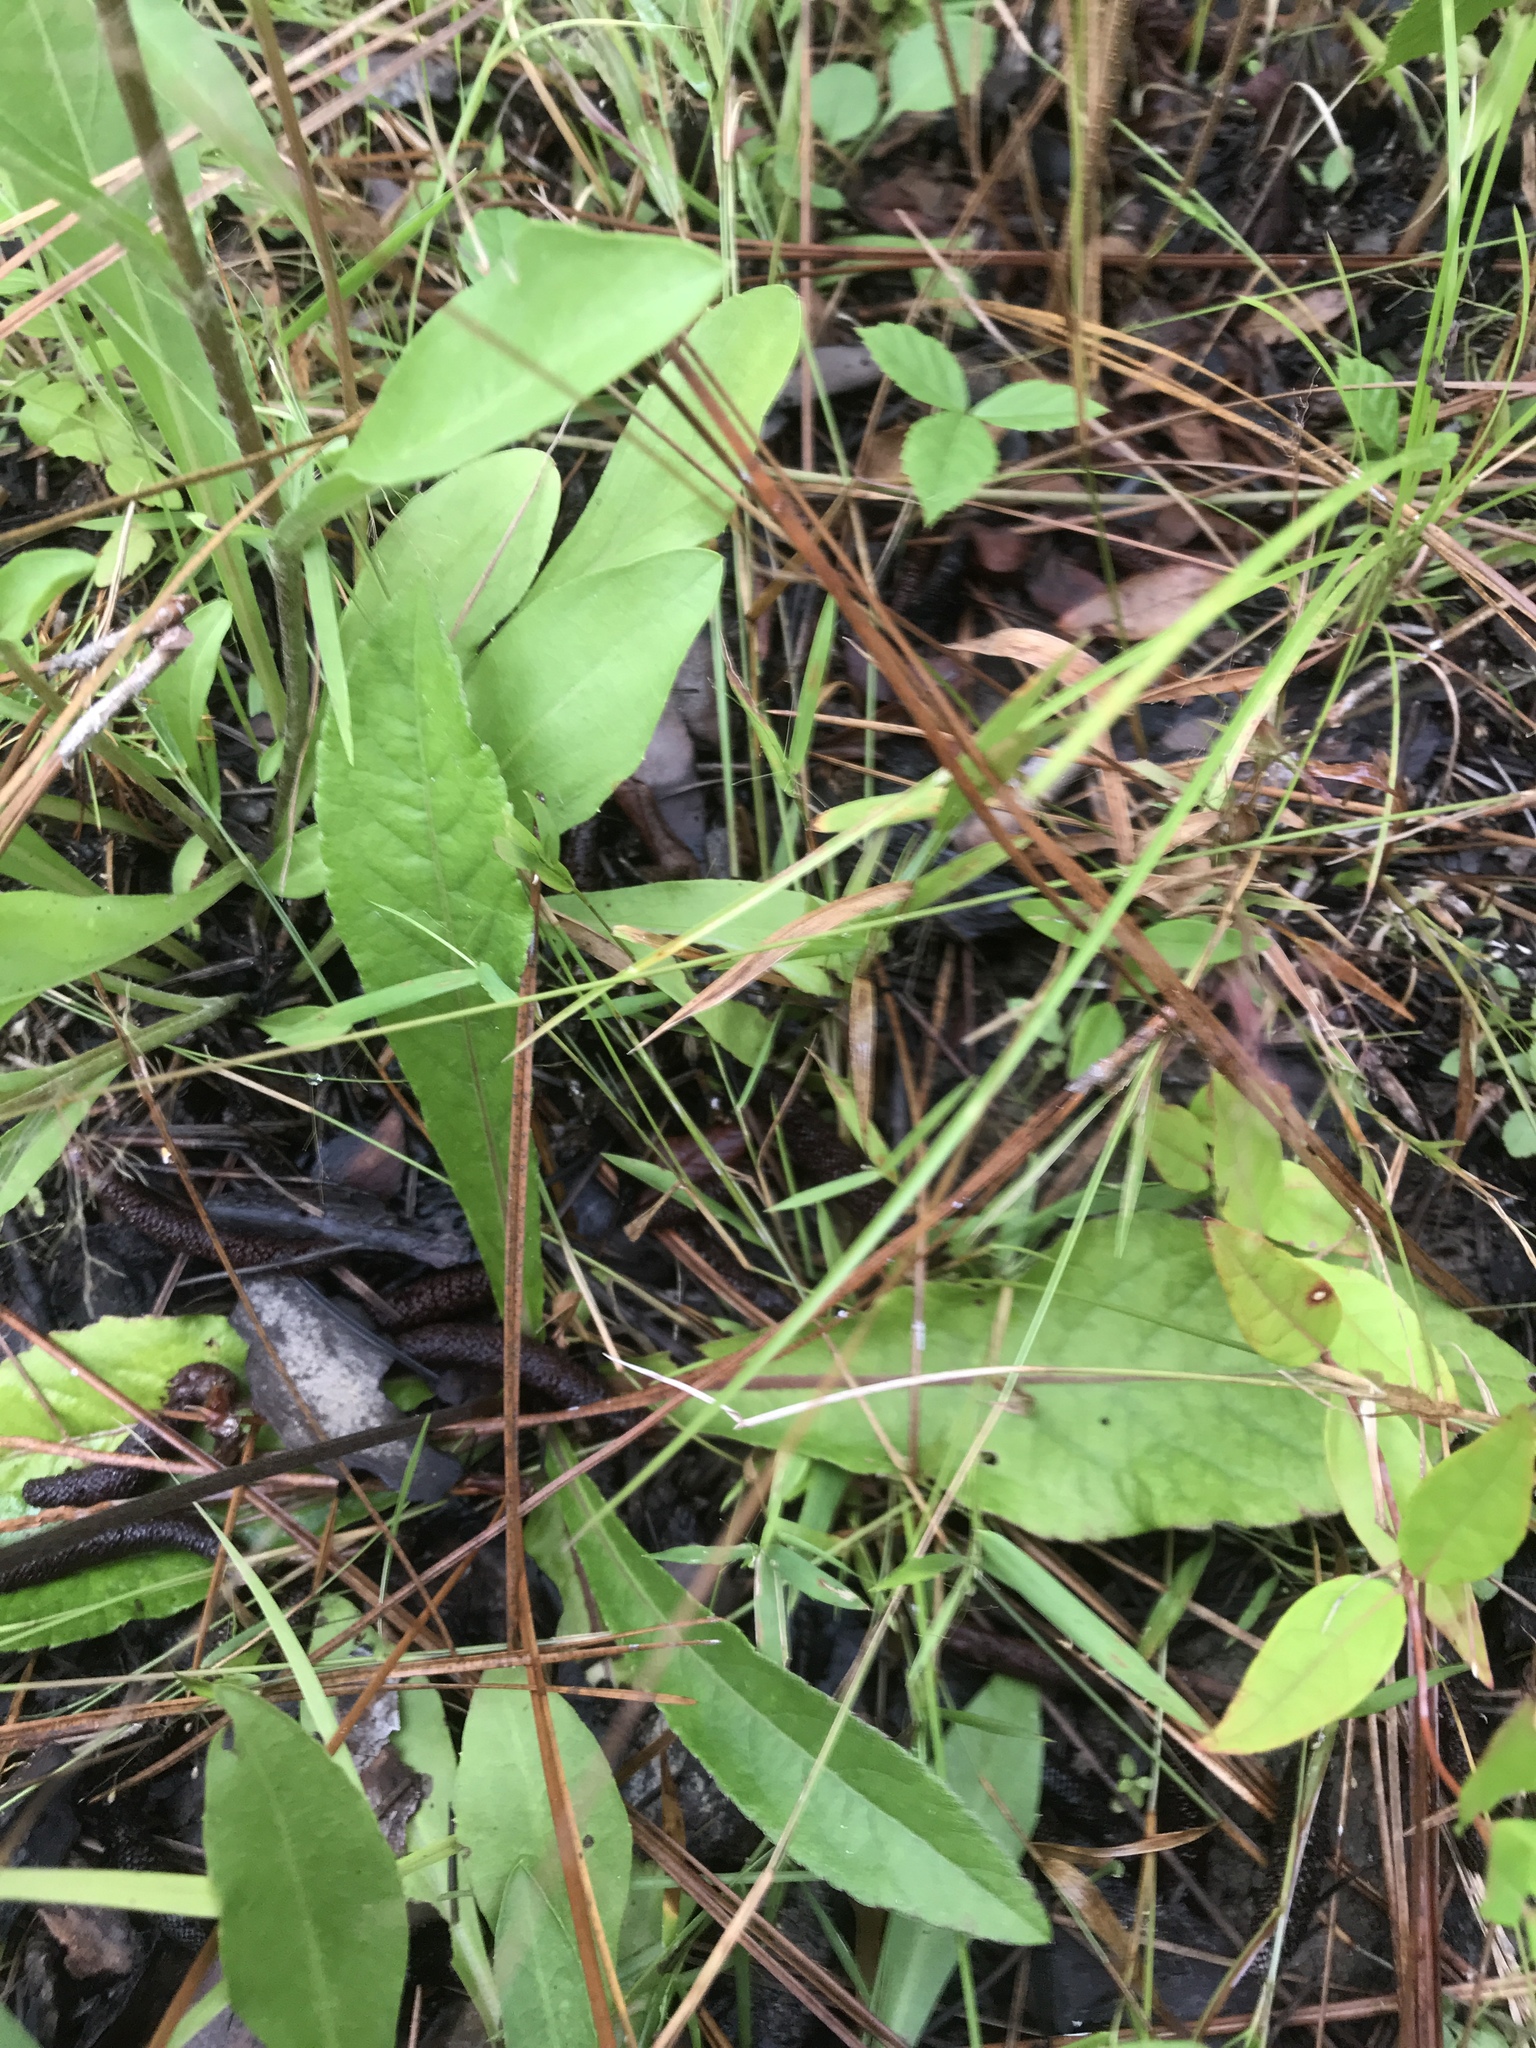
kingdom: Plantae
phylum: Tracheophyta
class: Magnoliopsida
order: Asterales
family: Asteraceae
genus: Elephantopus
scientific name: Elephantopus nudatus
